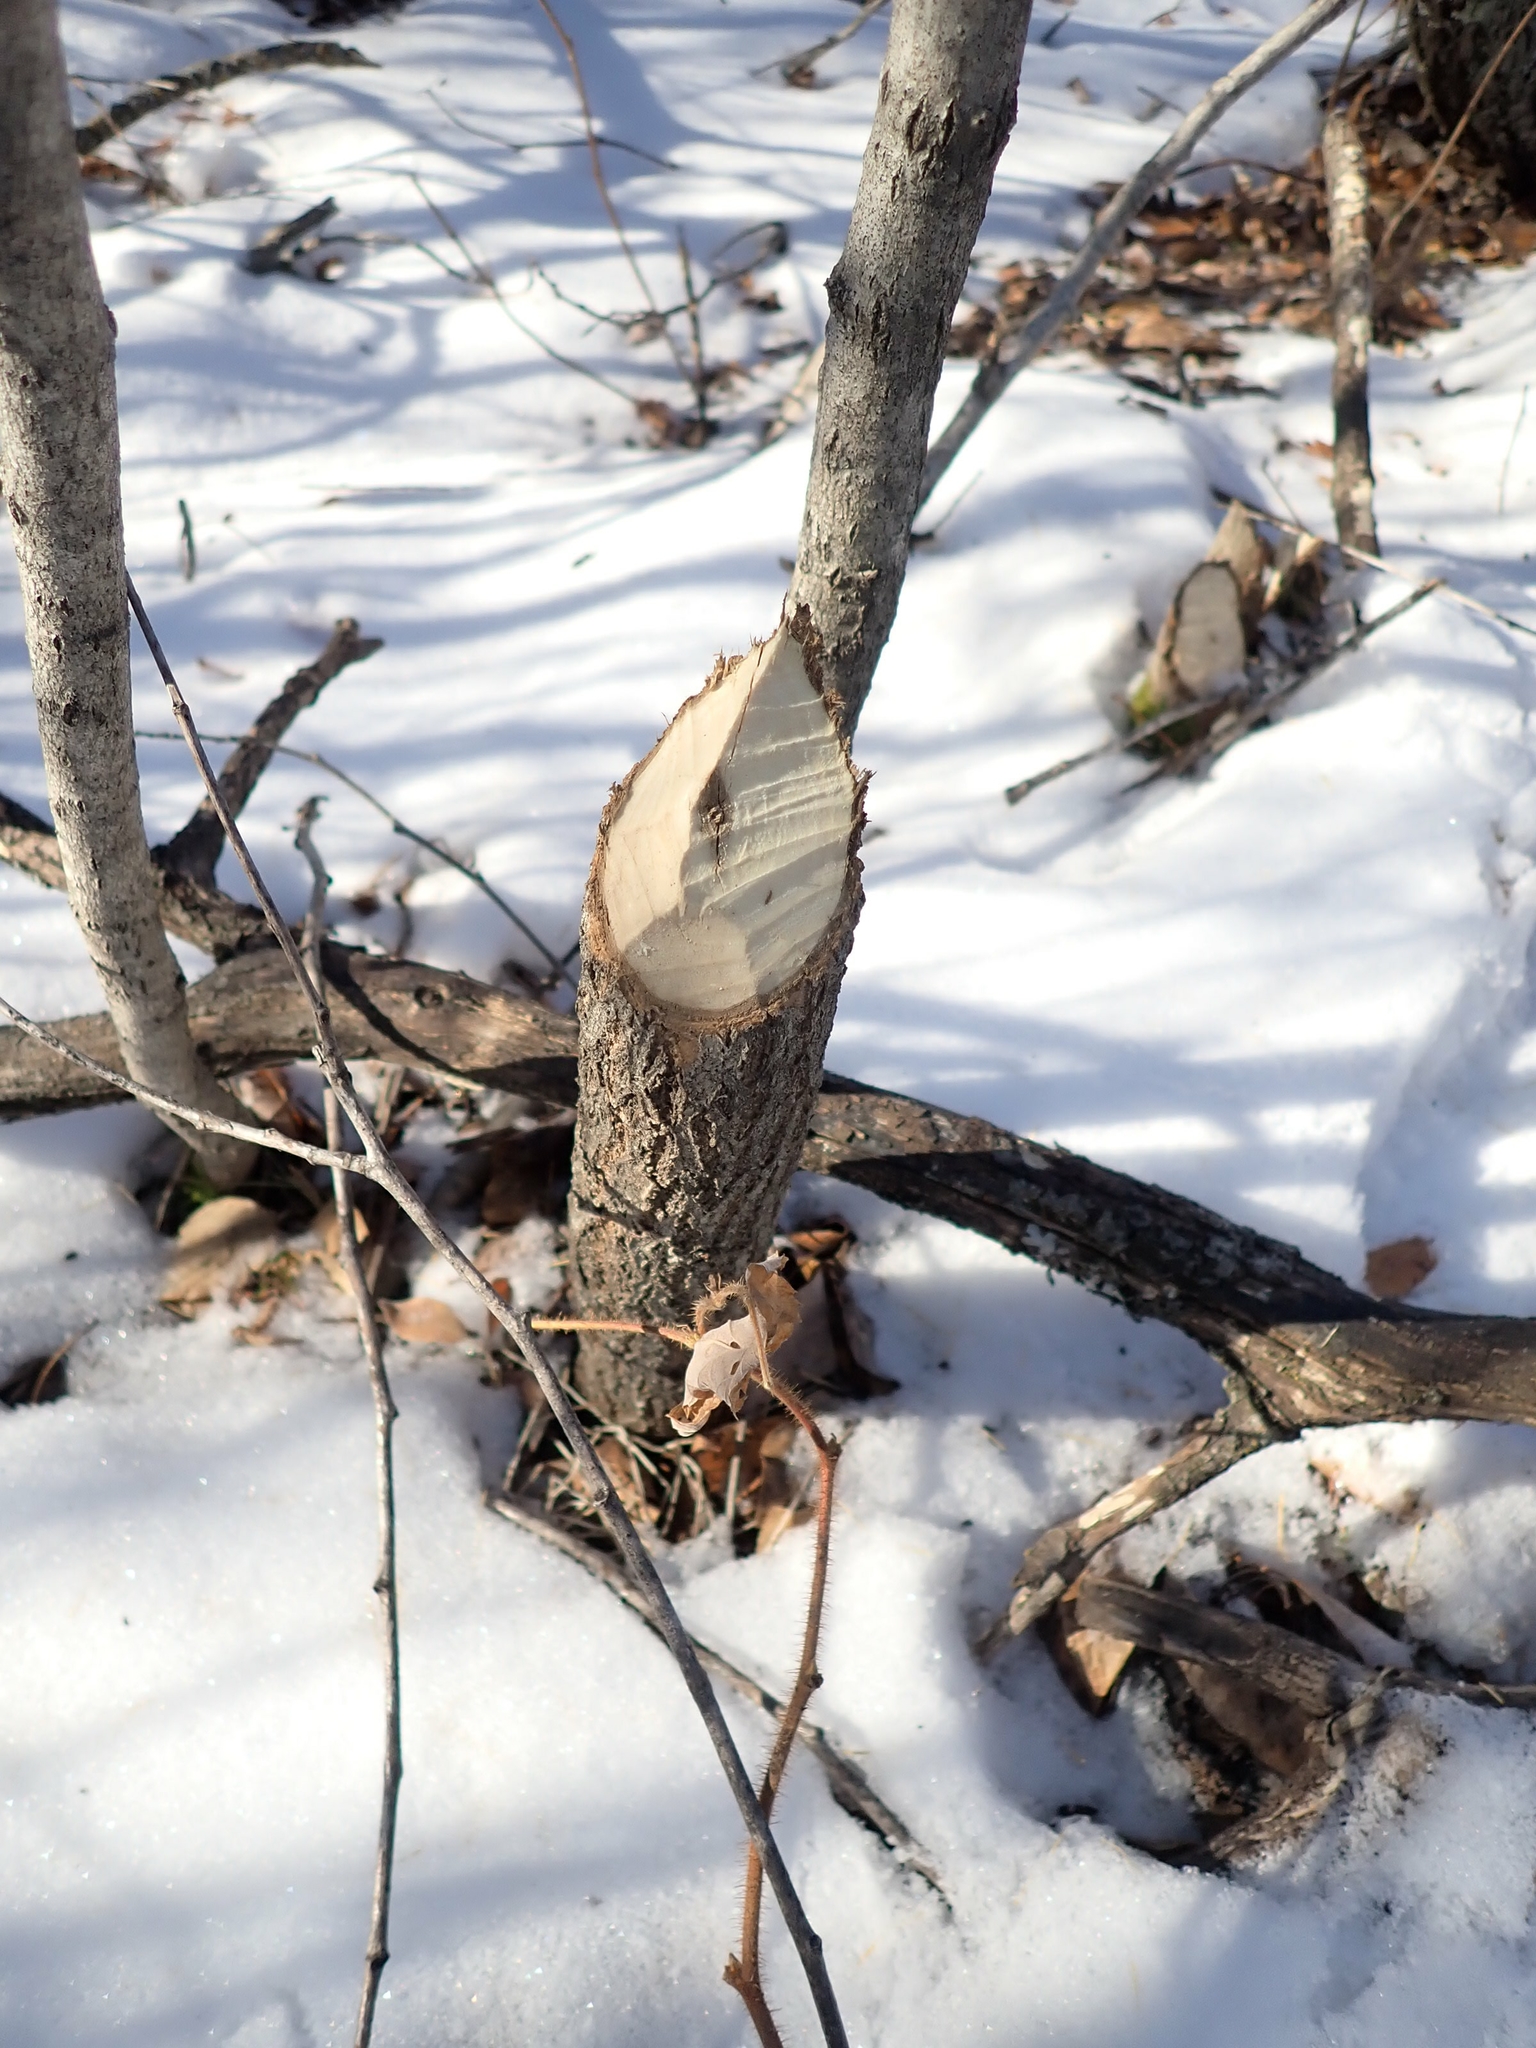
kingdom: Animalia
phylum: Chordata
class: Mammalia
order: Rodentia
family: Castoridae
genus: Castor
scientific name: Castor canadensis
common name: American beaver
